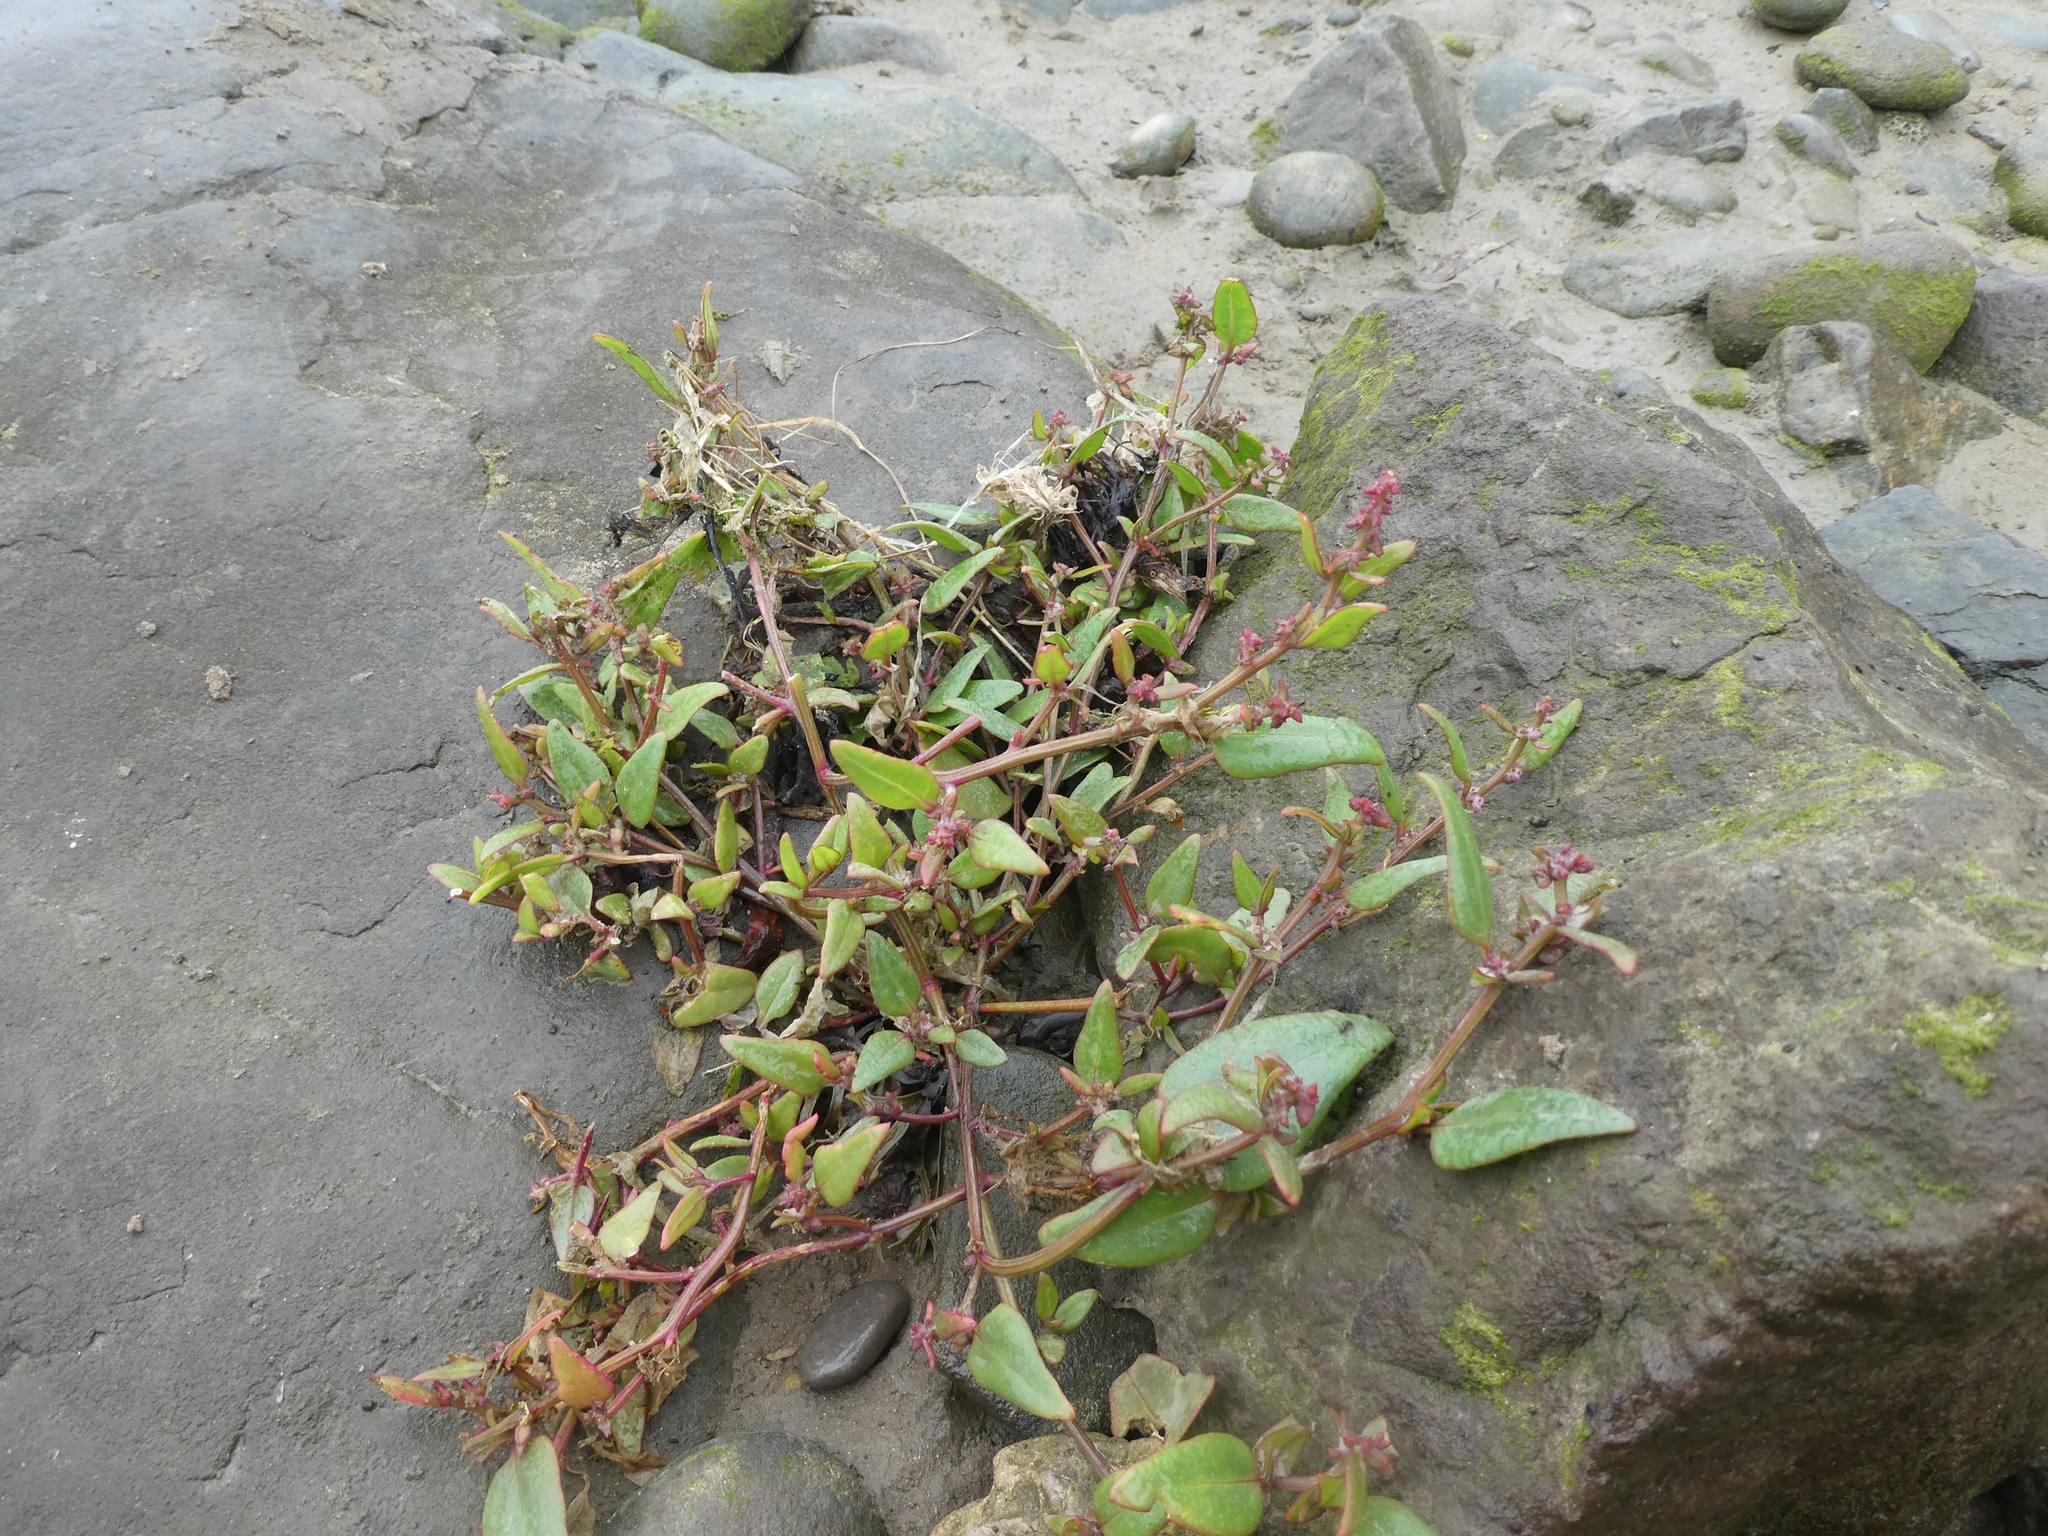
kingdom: Plantae
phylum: Tracheophyta
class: Magnoliopsida
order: Caryophyllales
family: Amaranthaceae
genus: Oxybasis
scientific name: Oxybasis chenopodioides
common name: Saltmarsh goosefoot
